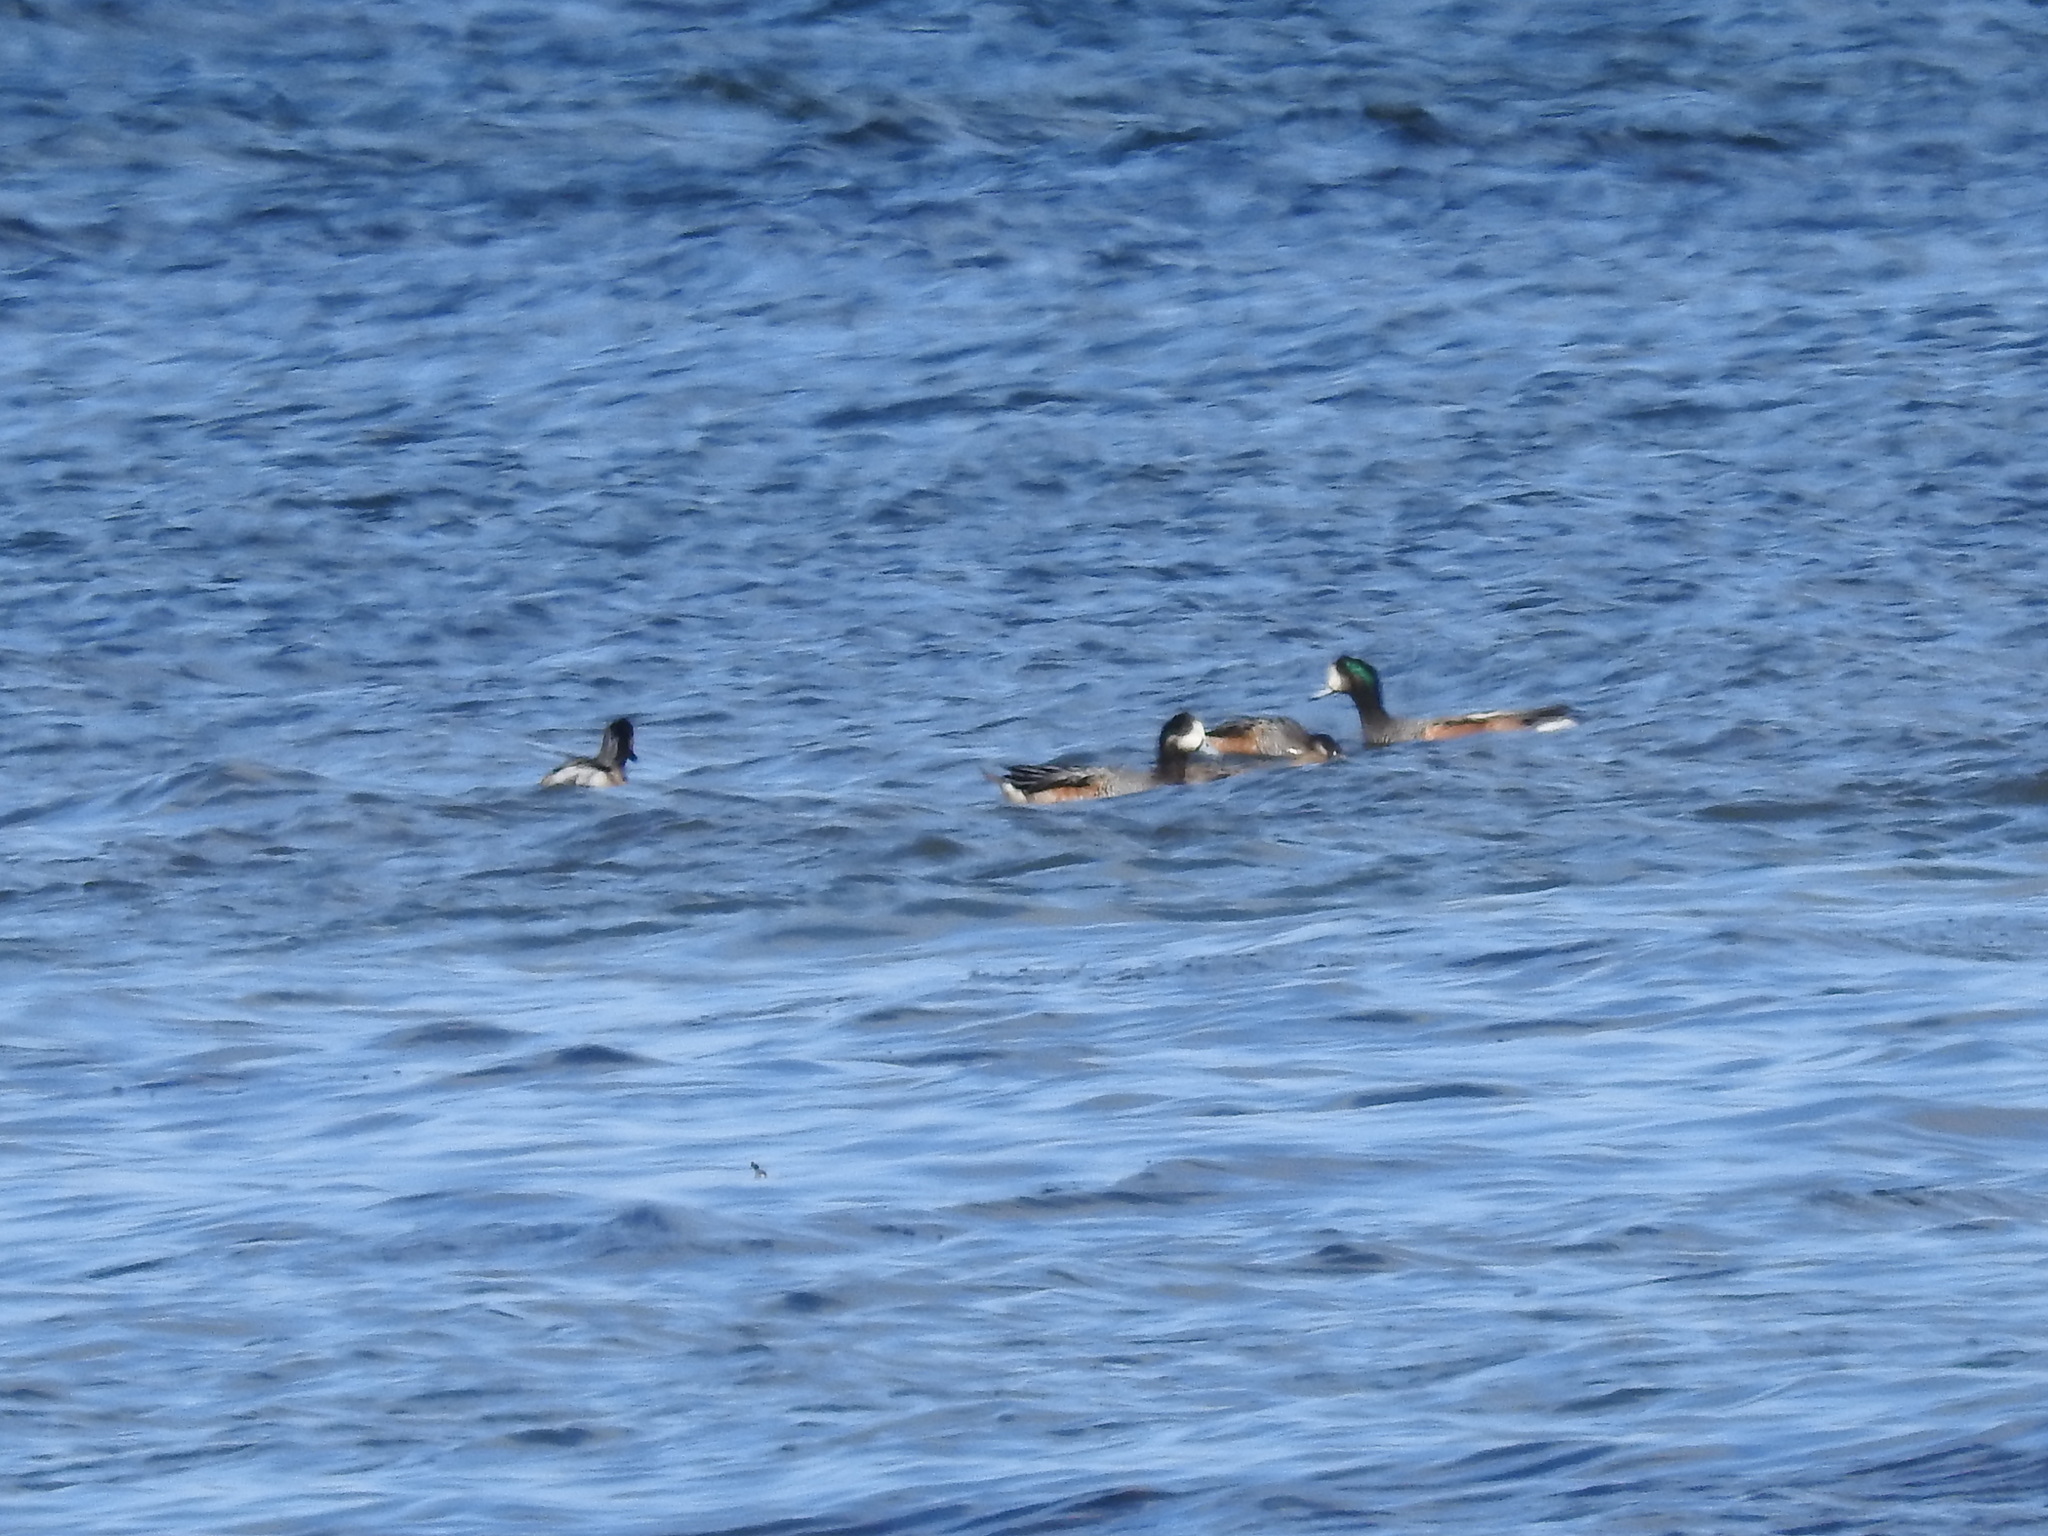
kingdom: Animalia
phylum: Chordata
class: Aves
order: Anseriformes
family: Anatidae
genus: Mareca
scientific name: Mareca sibilatrix
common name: Chiloe wigeon
